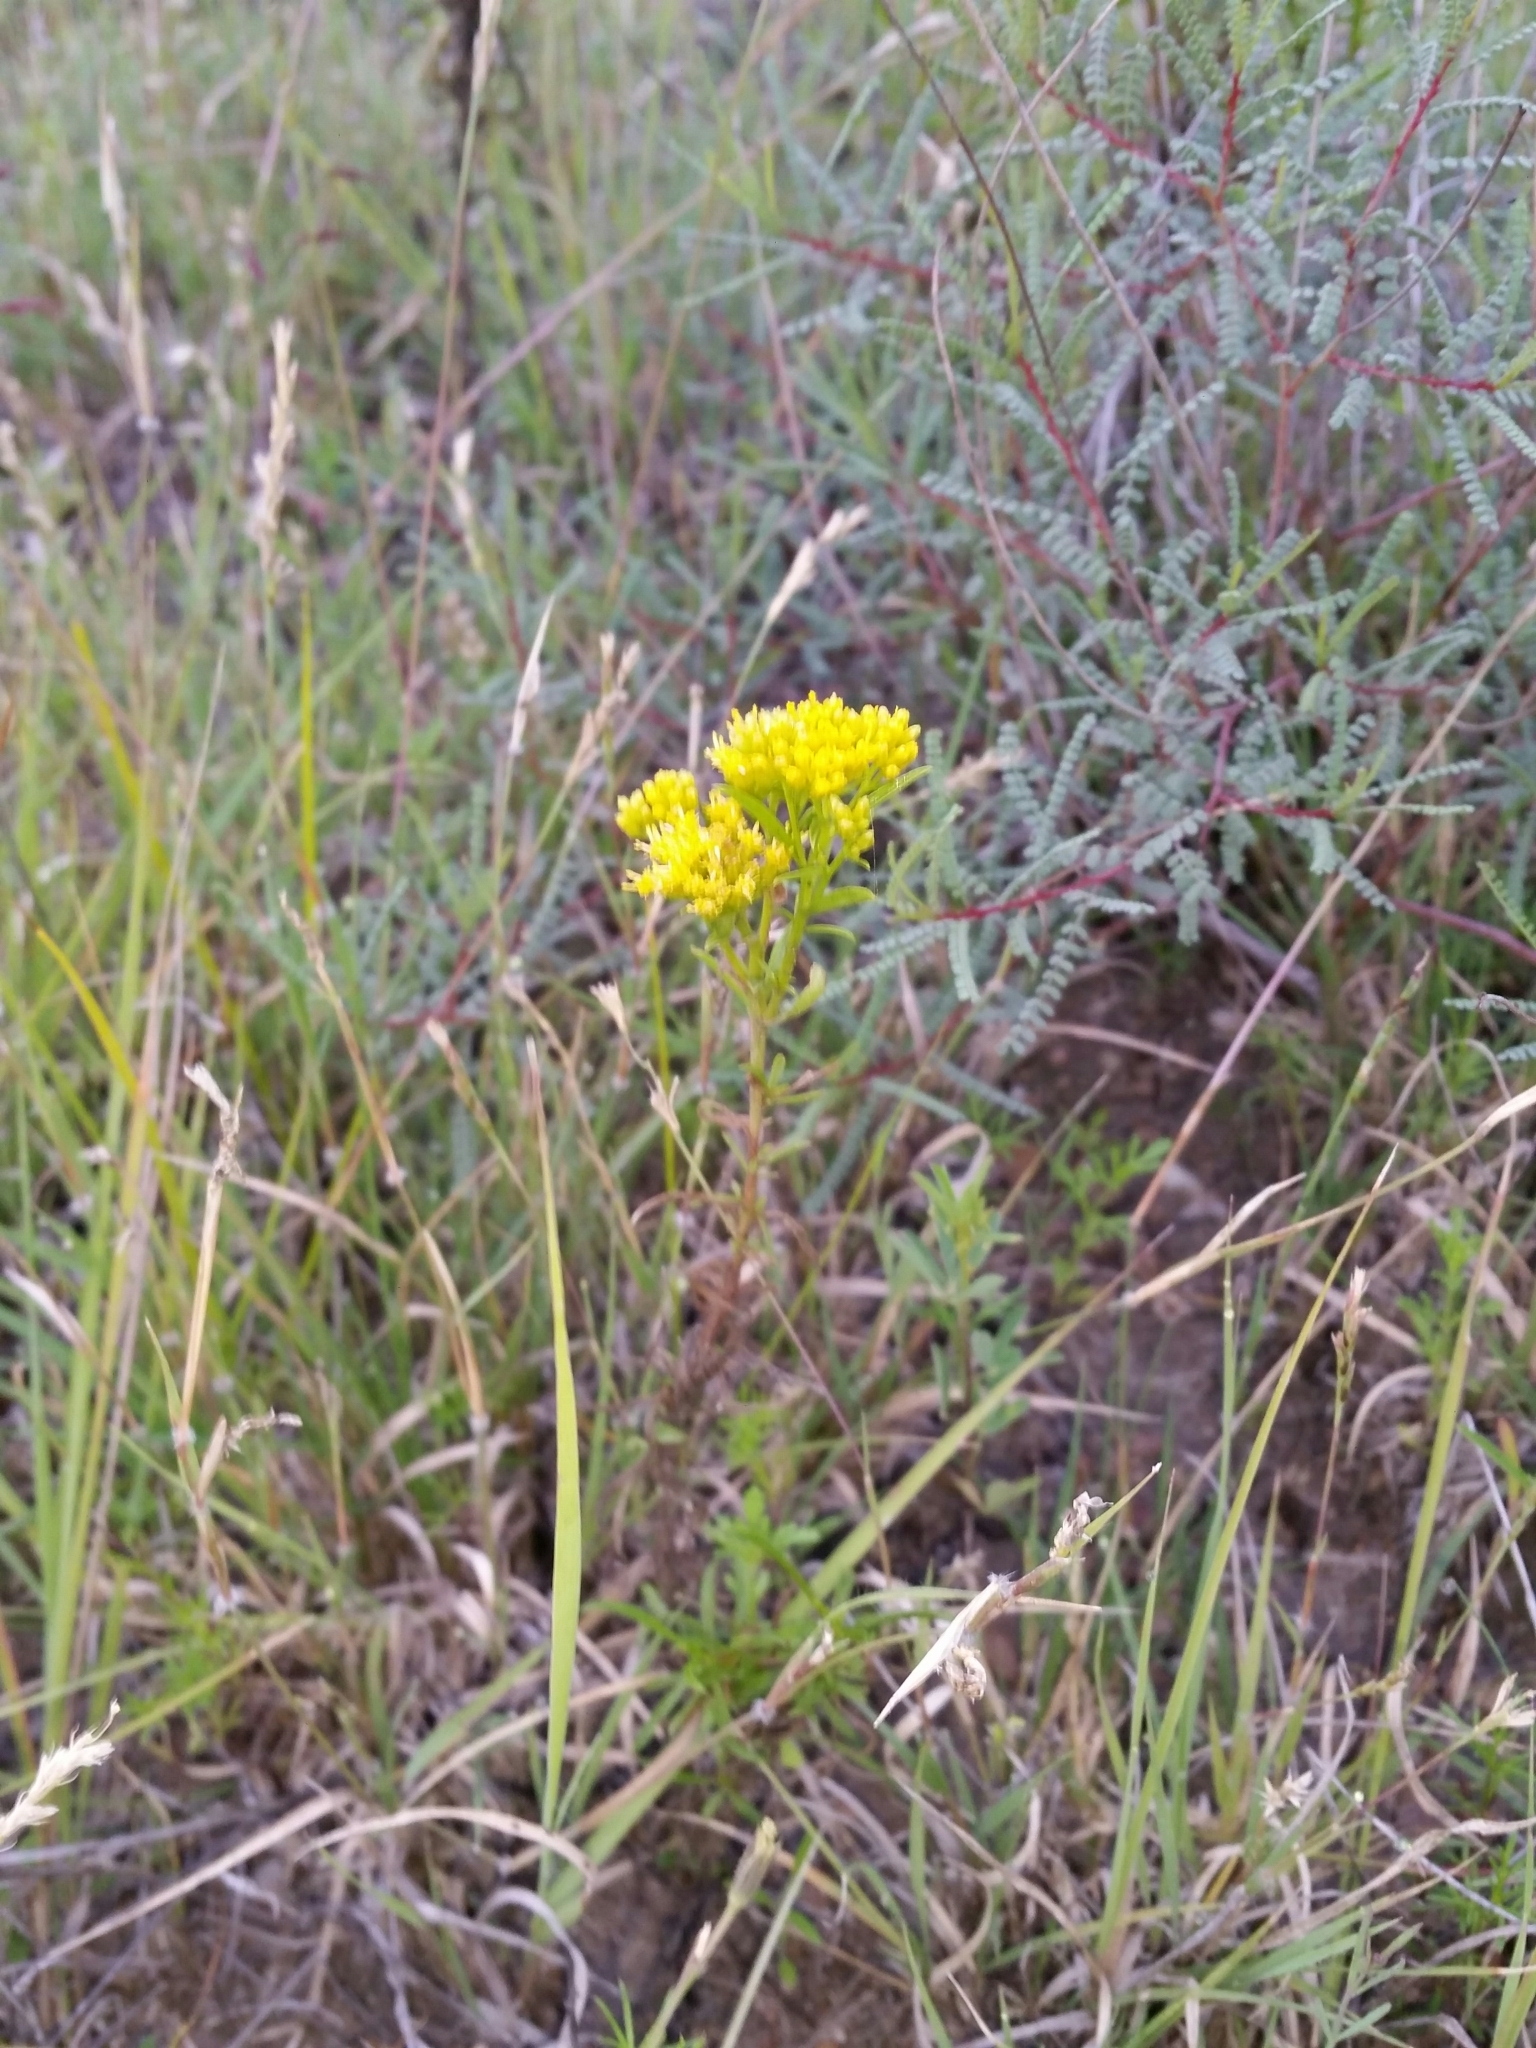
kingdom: Plantae
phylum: Tracheophyta
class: Magnoliopsida
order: Asterales
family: Asteraceae
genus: Gymnosperma
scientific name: Gymnosperma glutinosum
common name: Gumhead
